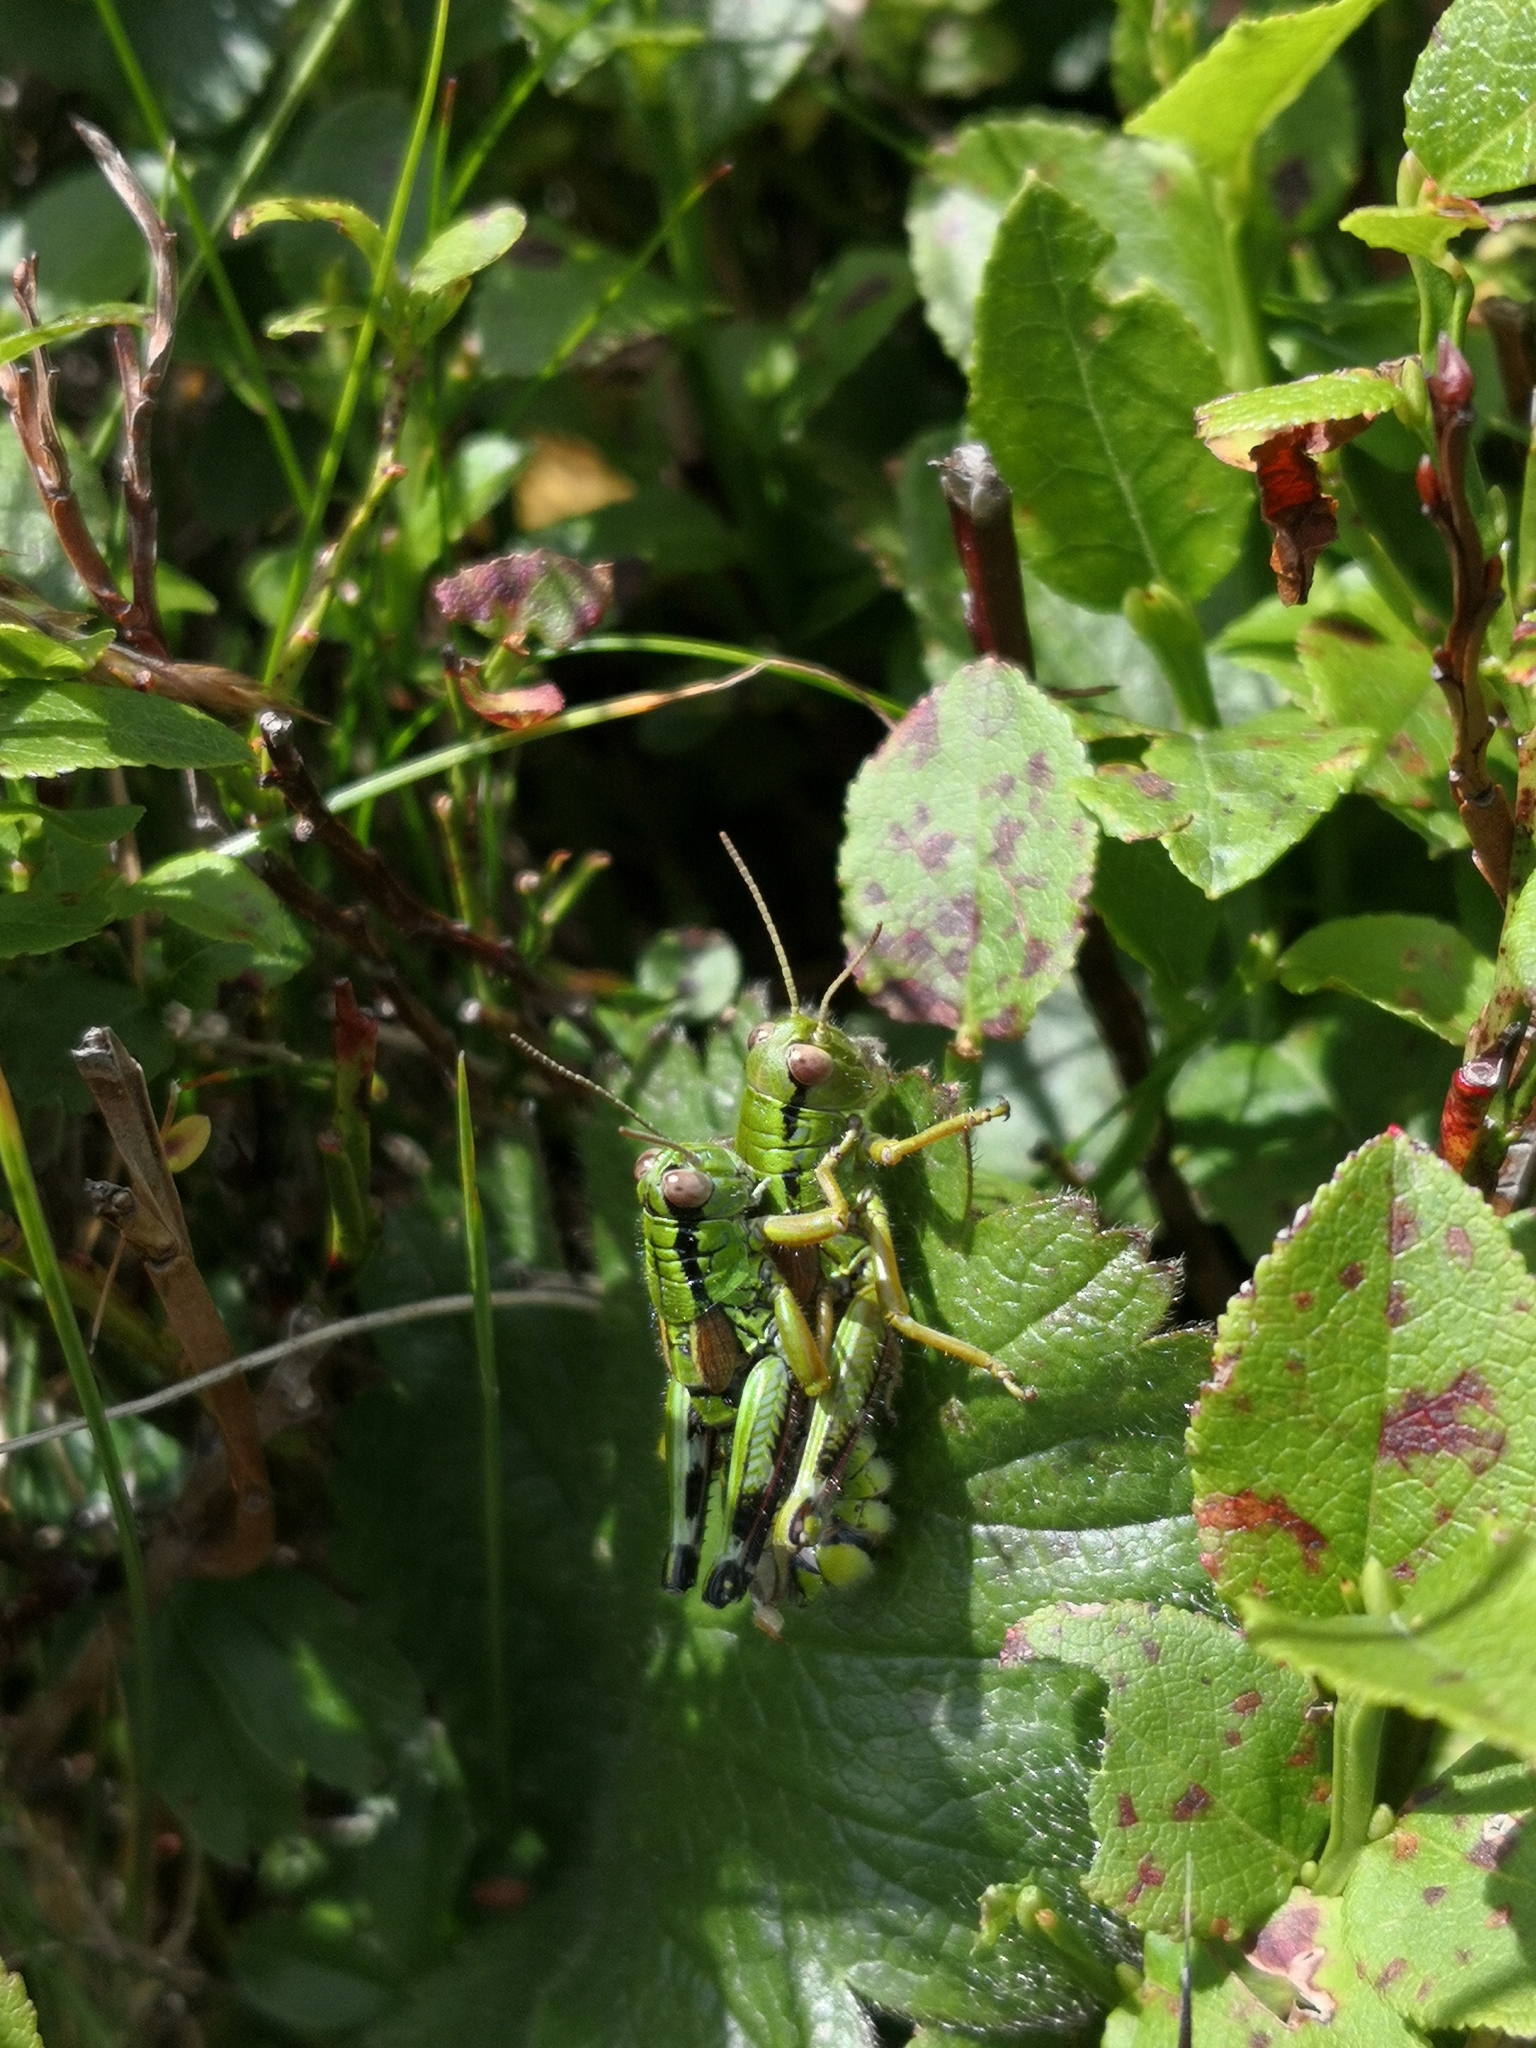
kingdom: Animalia
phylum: Arthropoda
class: Insecta
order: Orthoptera
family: Acrididae
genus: Miramella
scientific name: Miramella alpina
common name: Green mountain grasshopper
